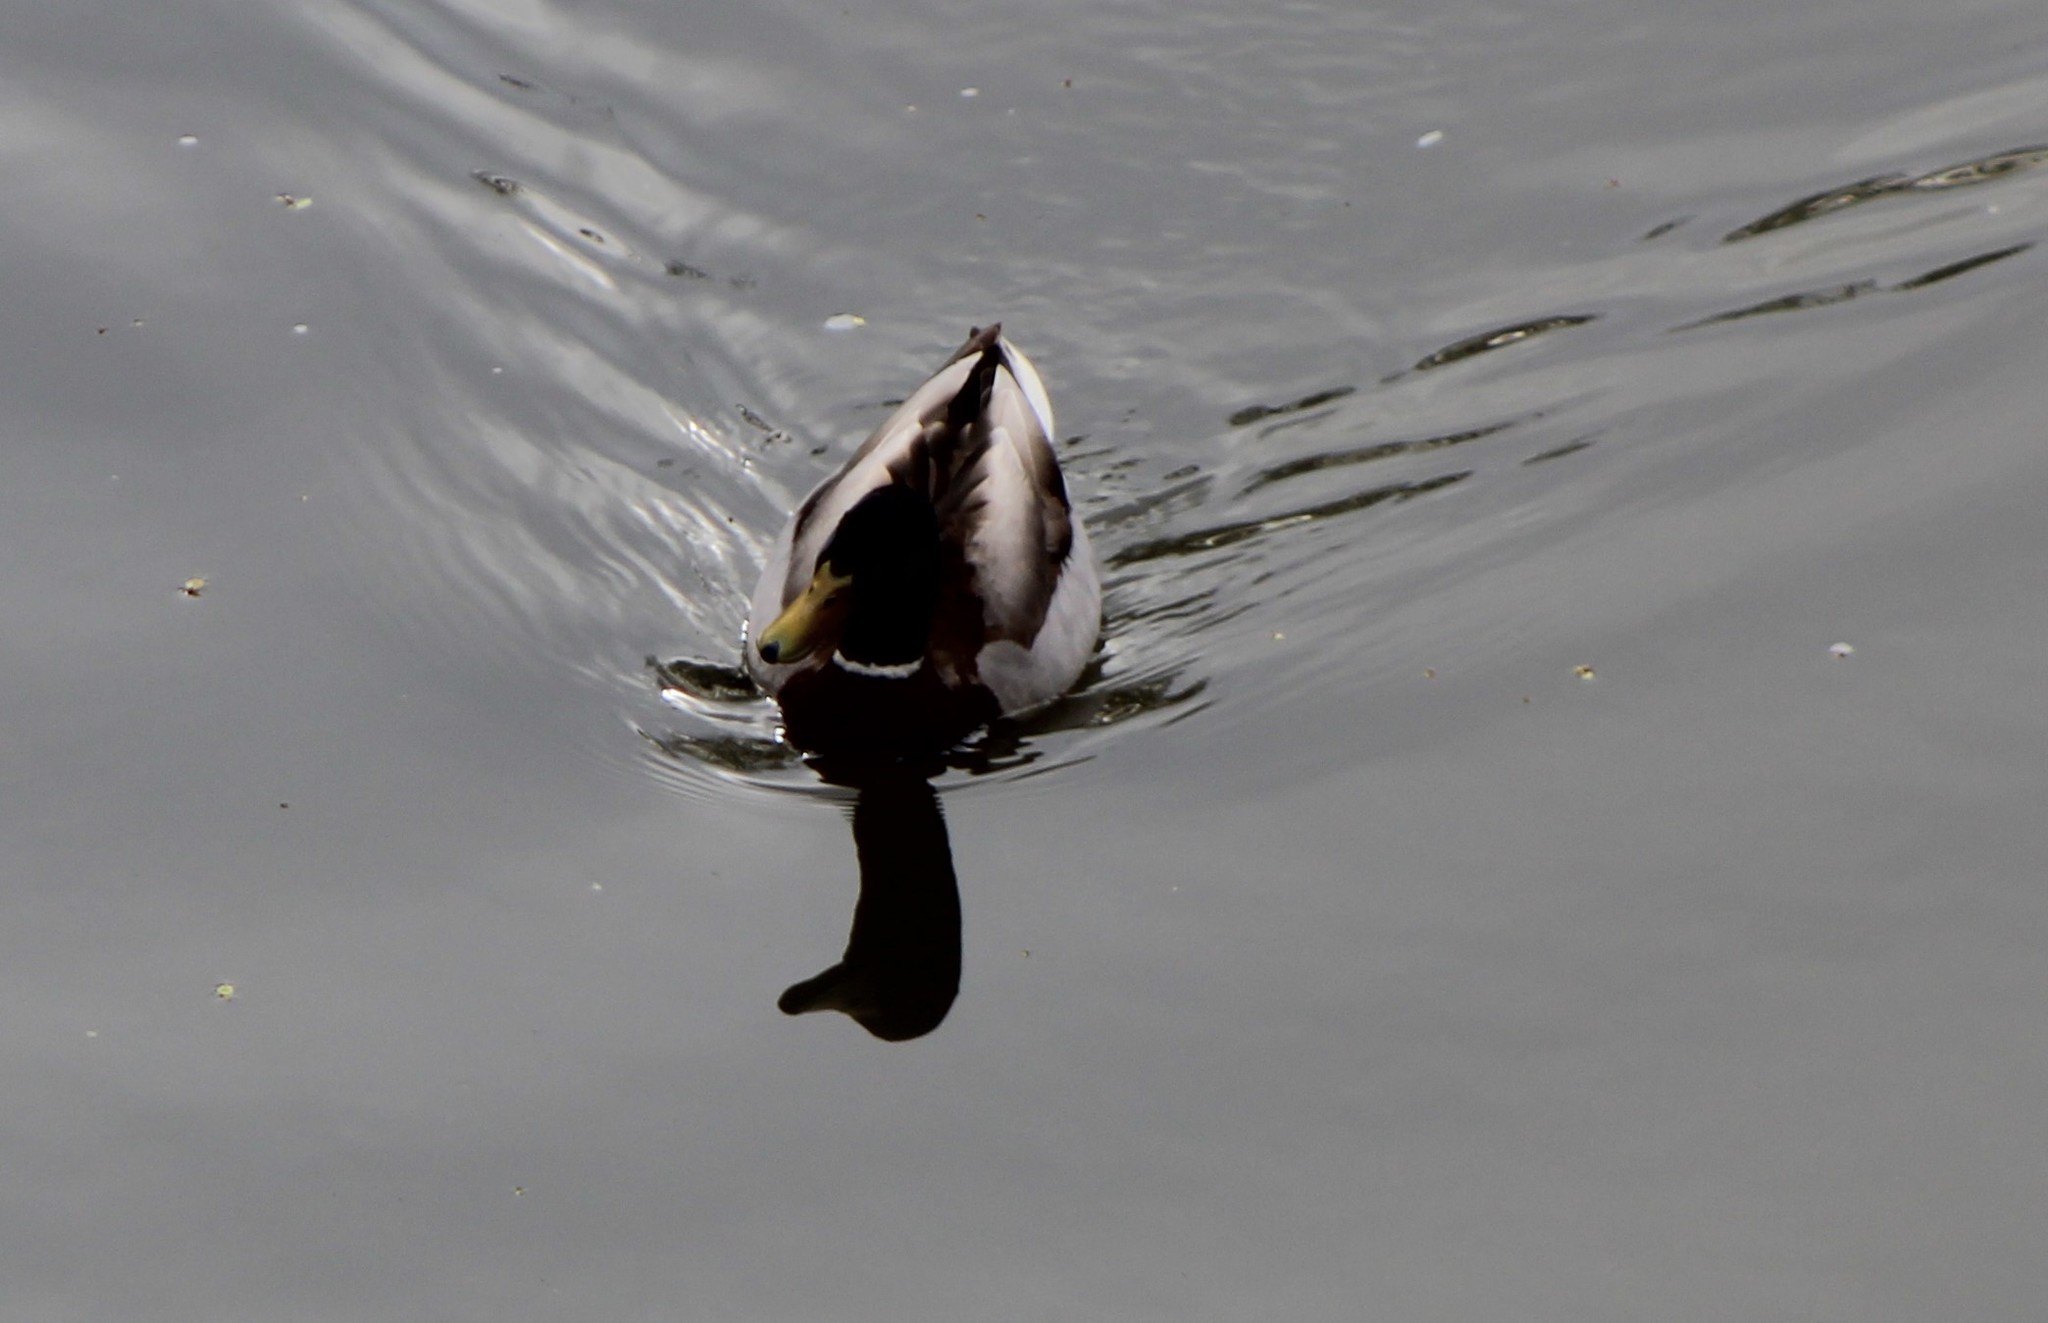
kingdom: Animalia
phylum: Chordata
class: Aves
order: Anseriformes
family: Anatidae
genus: Anas
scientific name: Anas platyrhynchos
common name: Mallard
